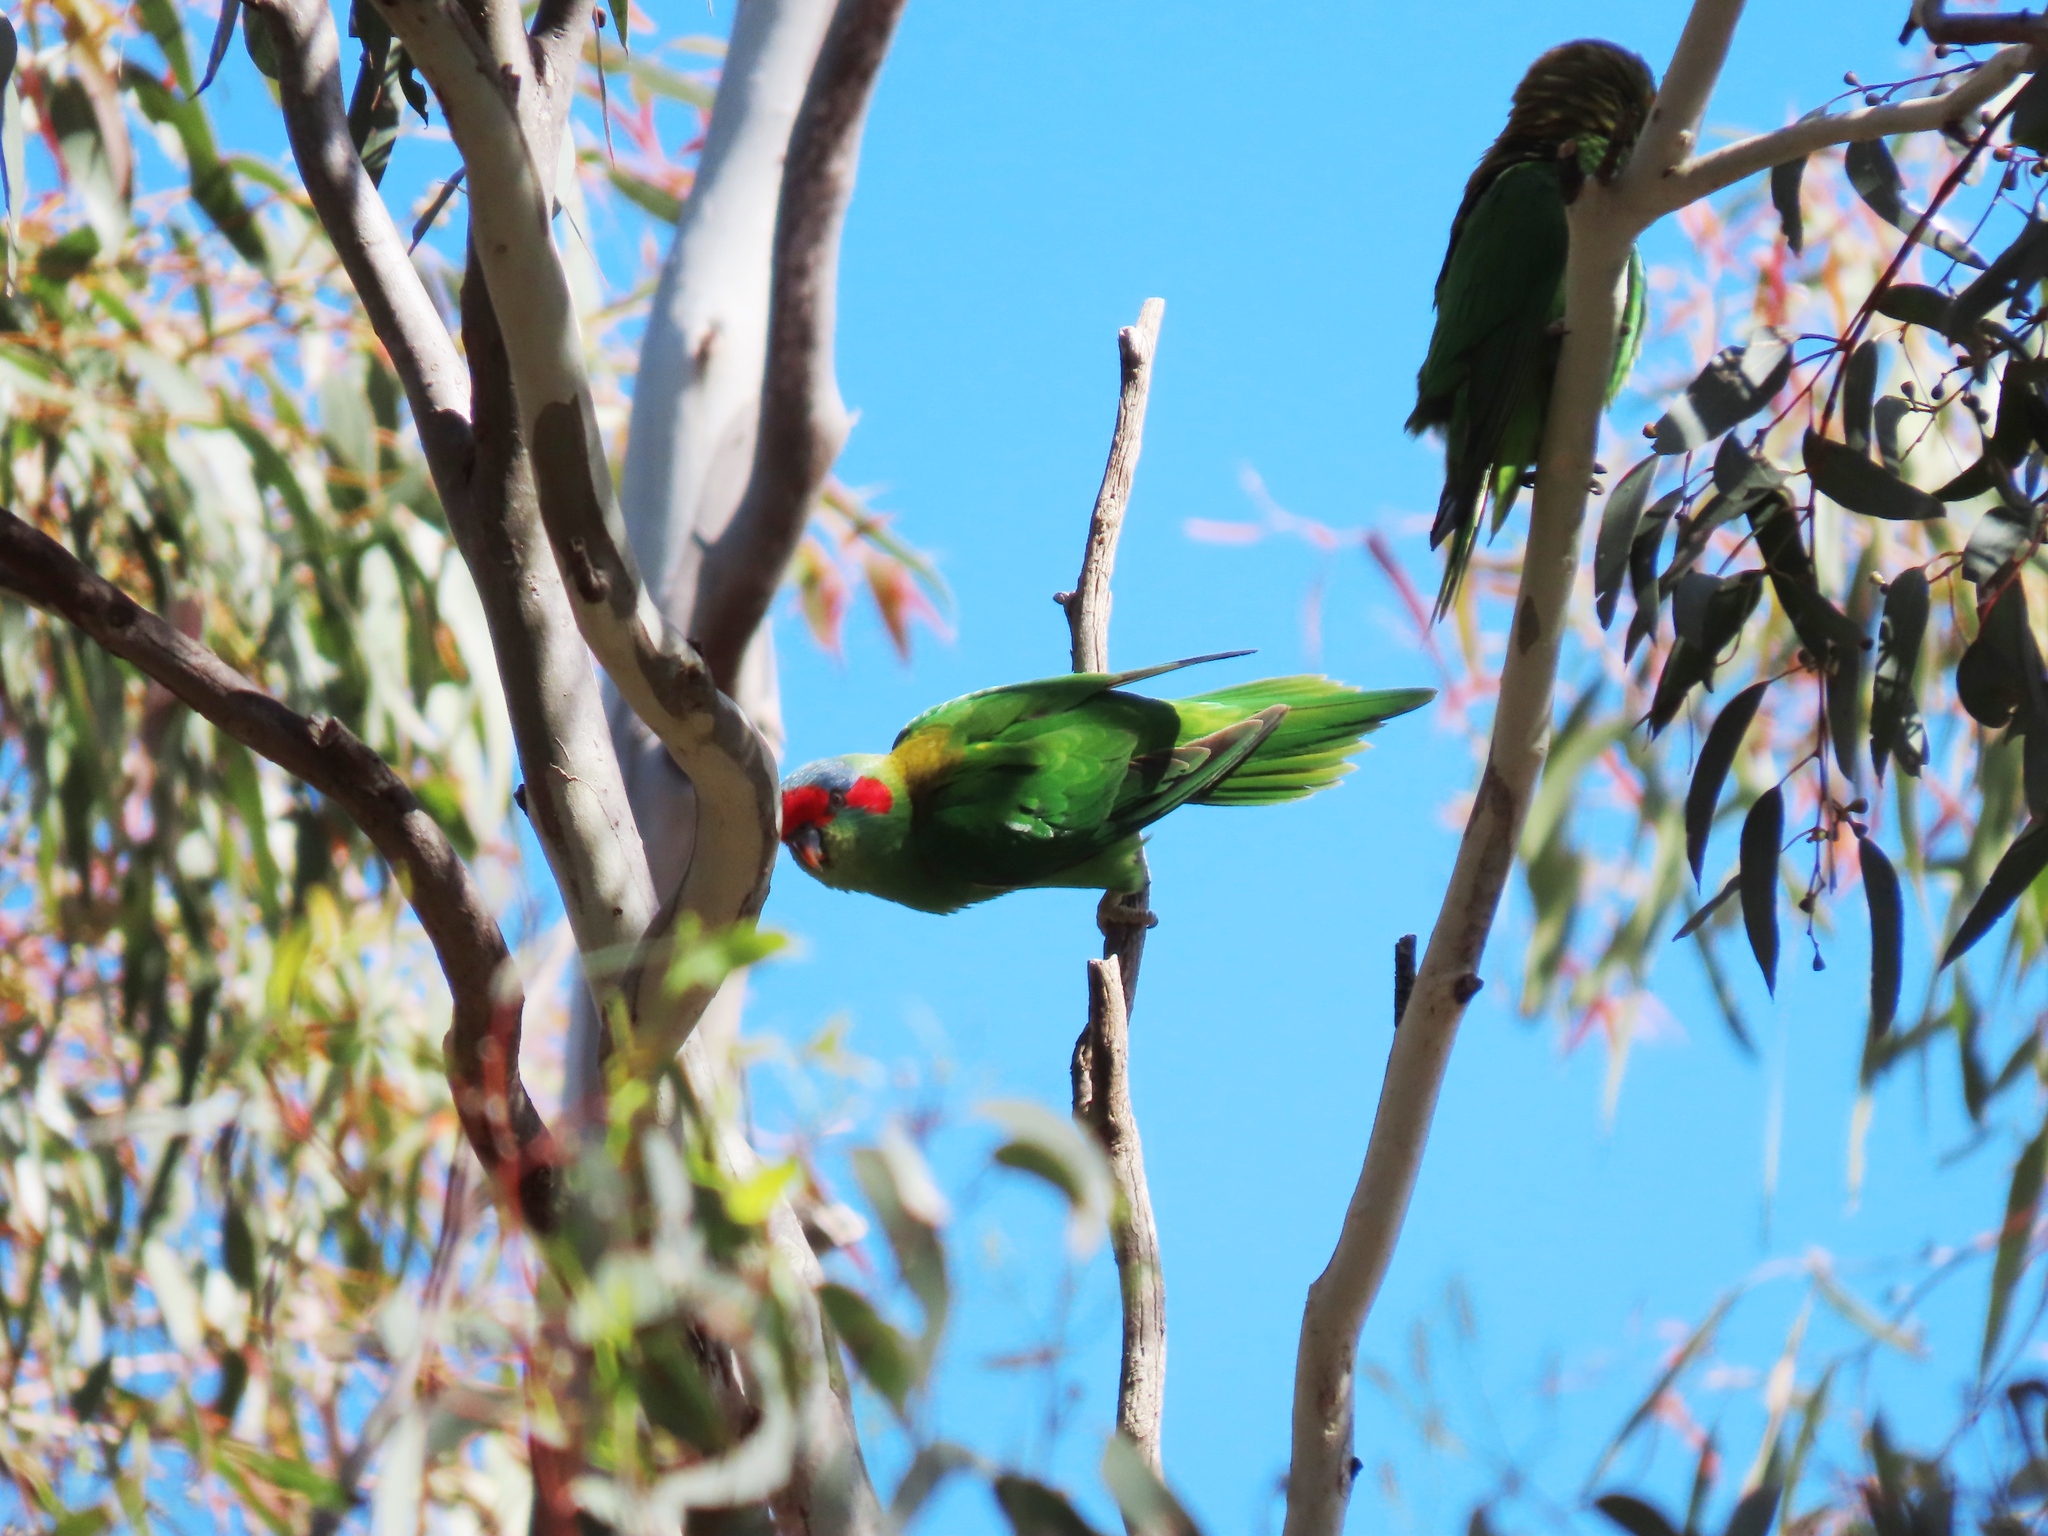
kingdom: Animalia
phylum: Chordata
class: Aves
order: Psittaciformes
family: Psittacidae
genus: Glossopsitta
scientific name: Glossopsitta concinna
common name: Musk lorikeet
